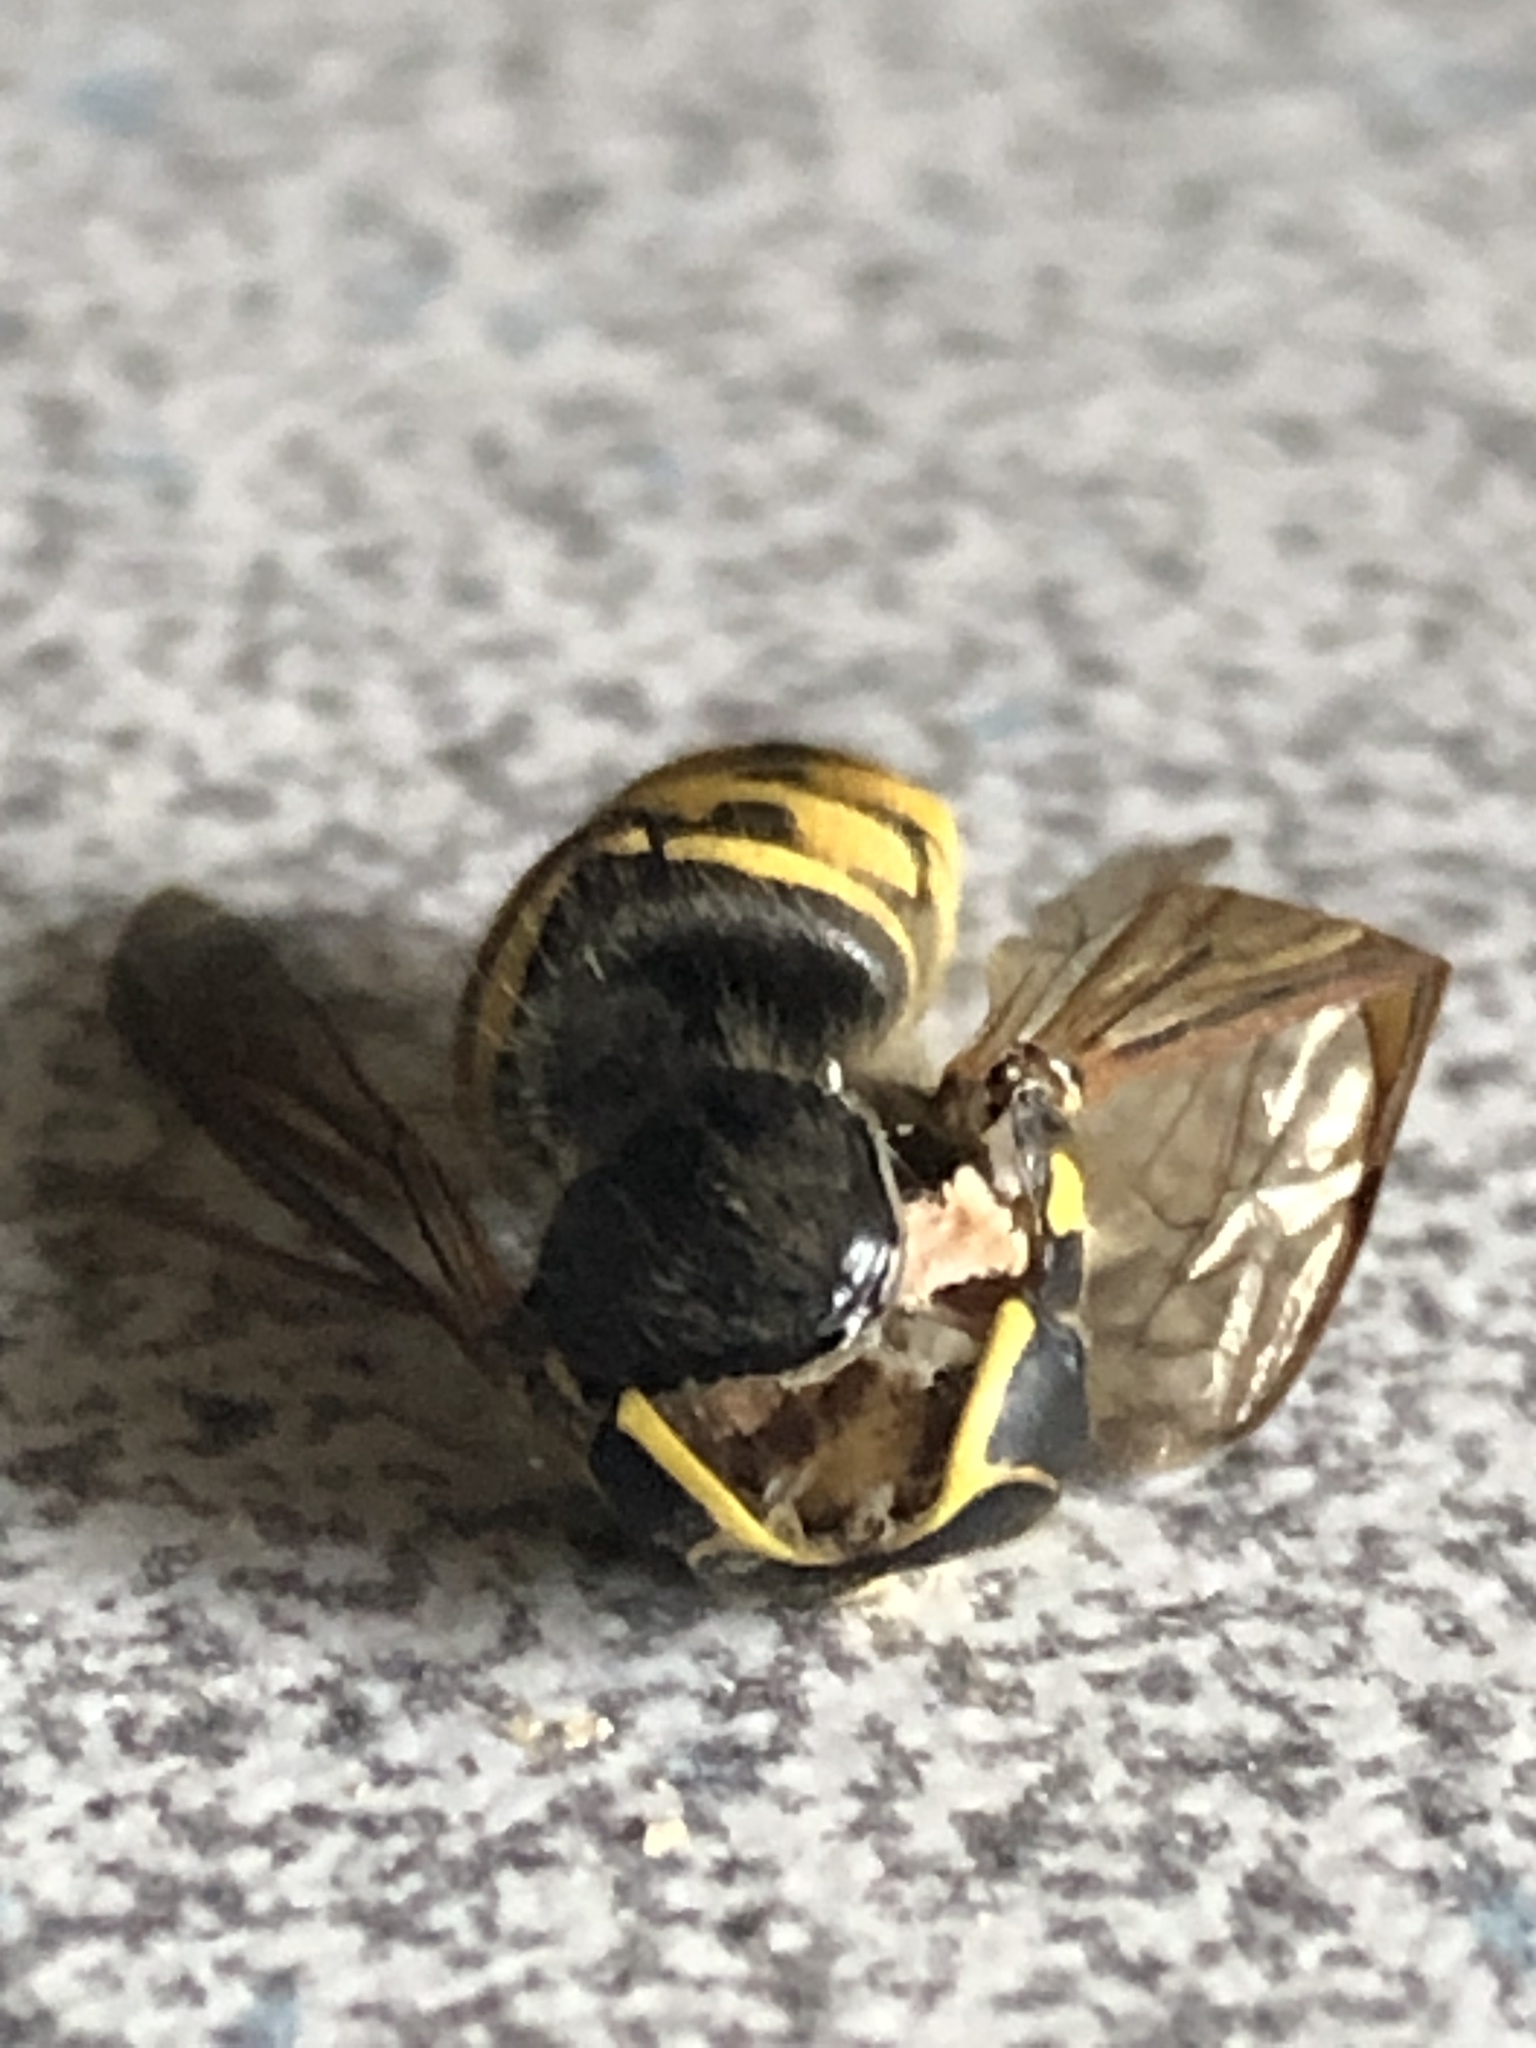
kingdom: Animalia
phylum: Arthropoda
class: Insecta
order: Hymenoptera
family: Vespidae
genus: Dolichovespula
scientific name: Dolichovespula arenaria
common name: Aerial yellowjacket
